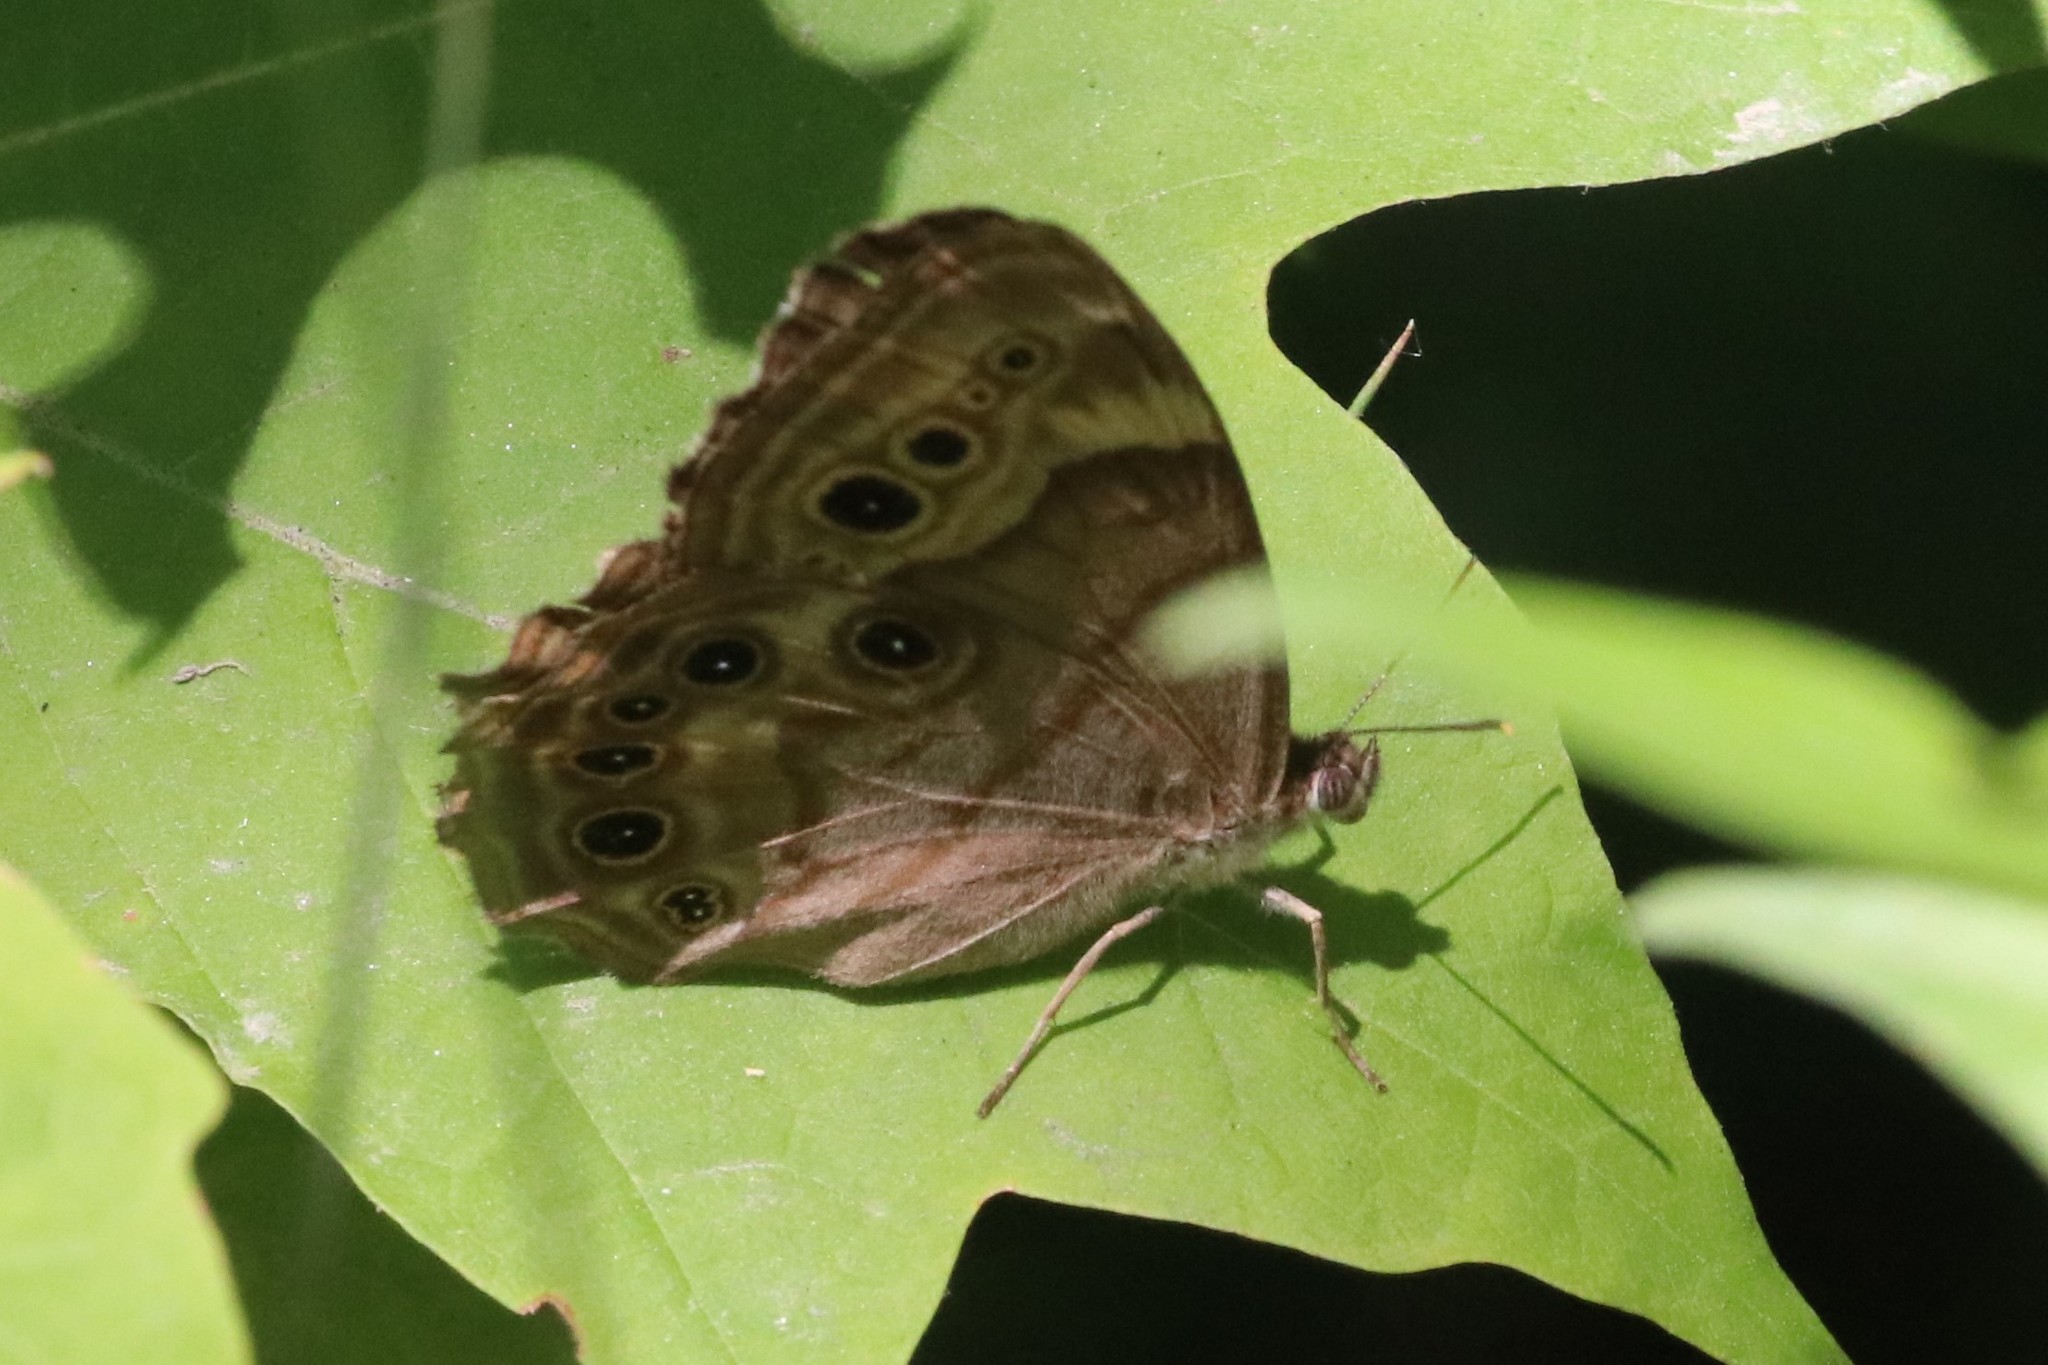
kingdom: Animalia
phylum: Arthropoda
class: Insecta
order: Lepidoptera
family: Nymphalidae
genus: Lethe
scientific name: Lethe anthedon
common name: Northern pearly-eye
